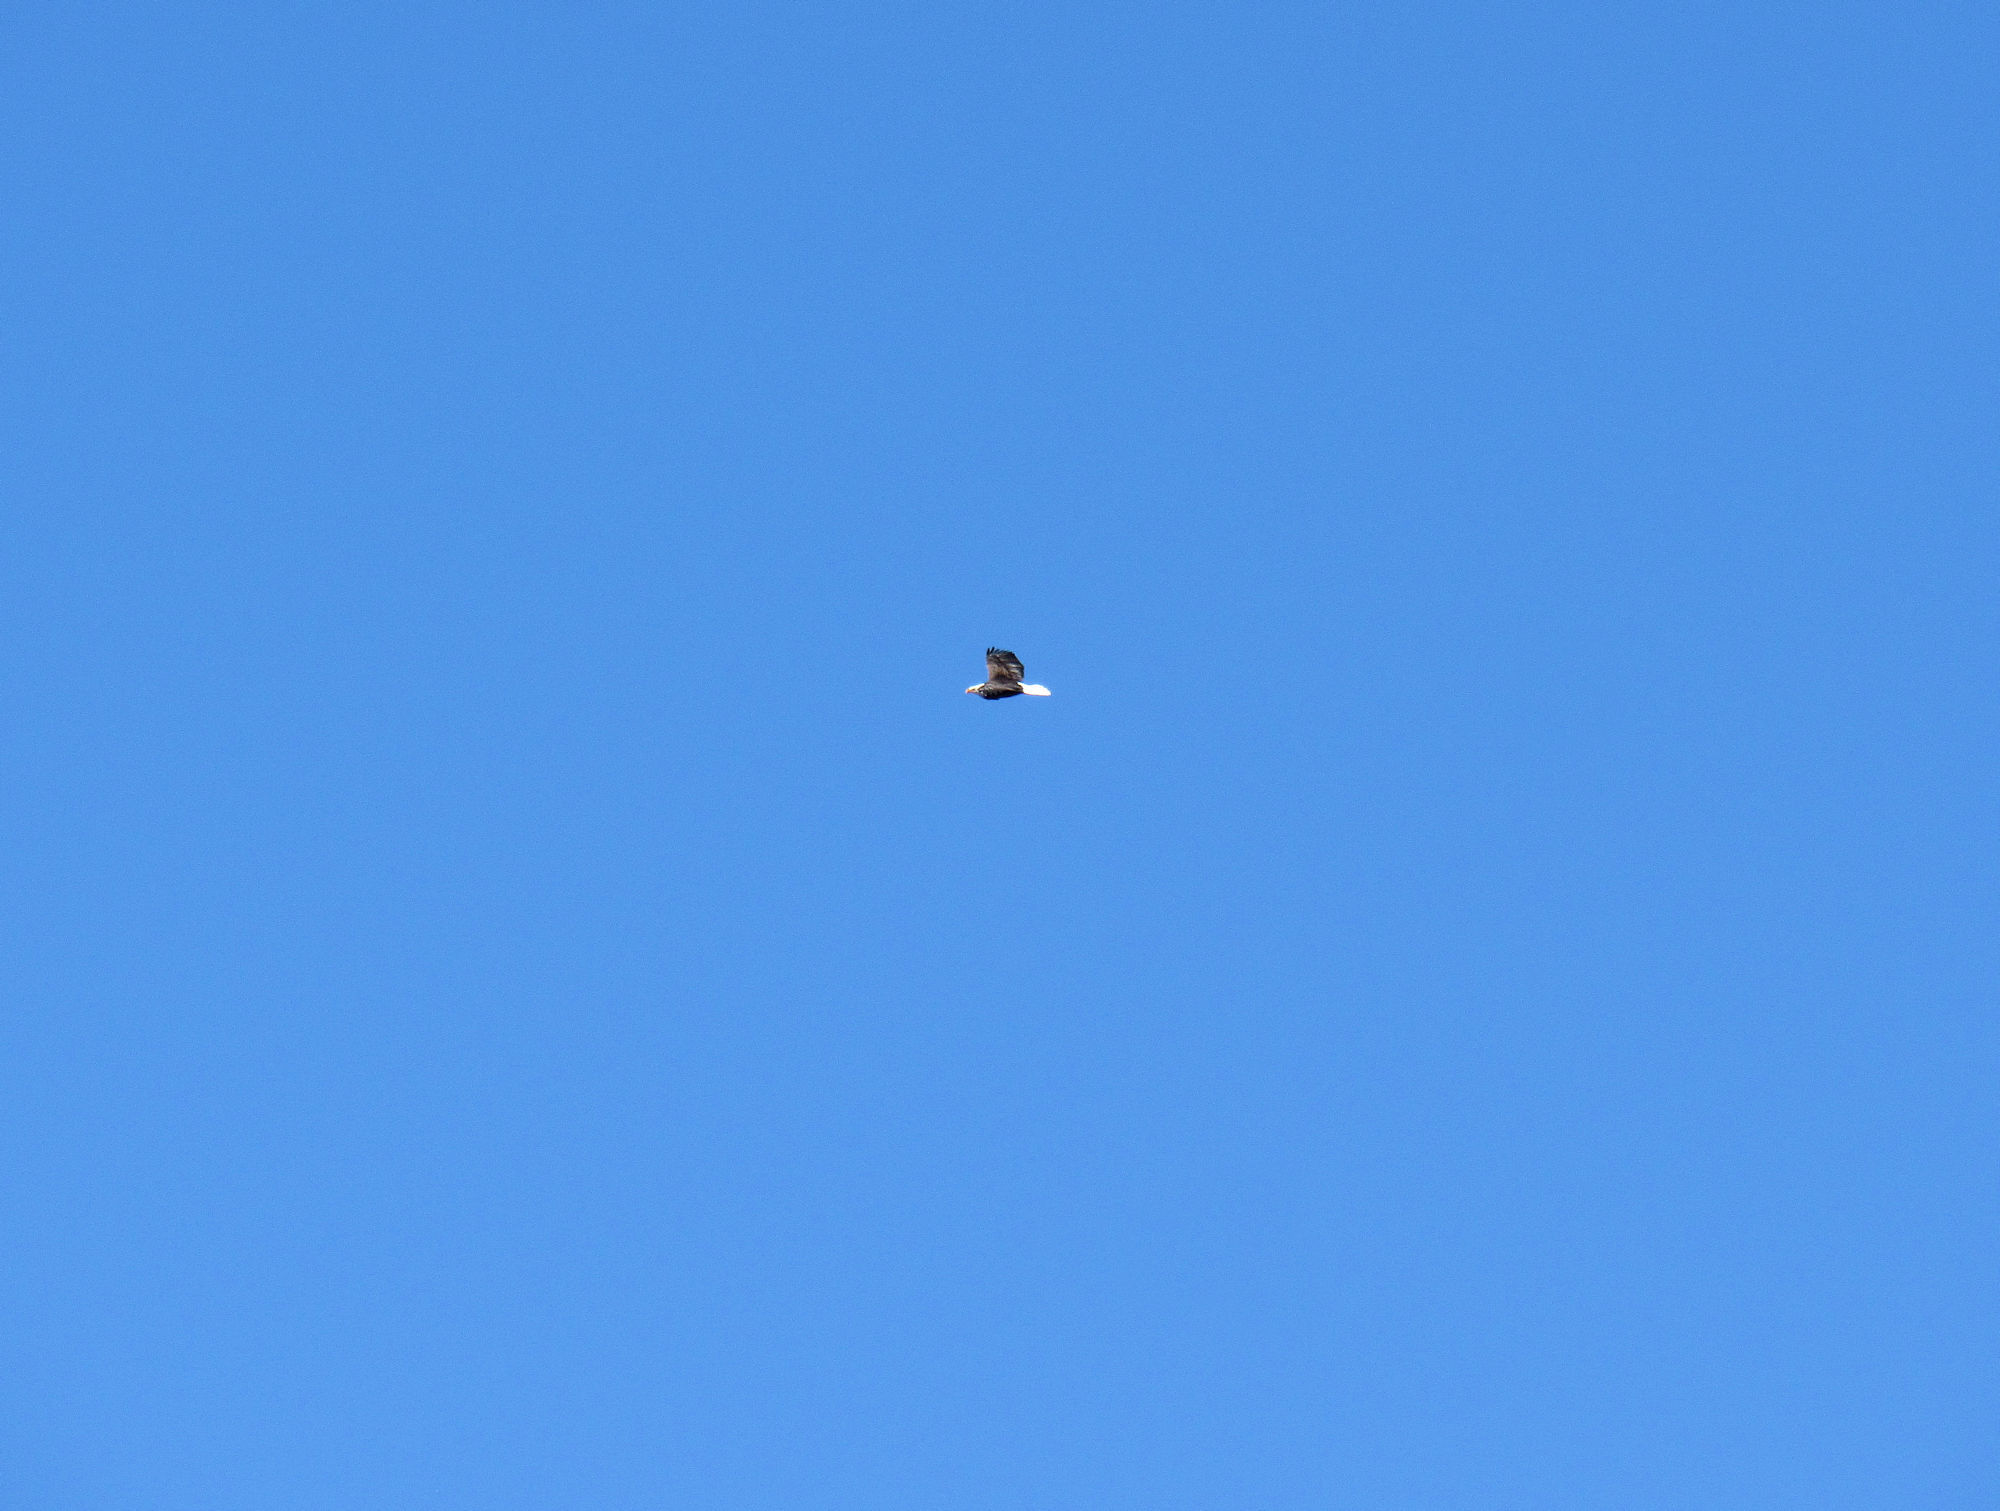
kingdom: Animalia
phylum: Chordata
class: Aves
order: Accipitriformes
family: Accipitridae
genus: Haliaeetus
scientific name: Haliaeetus leucocephalus
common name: Bald eagle
